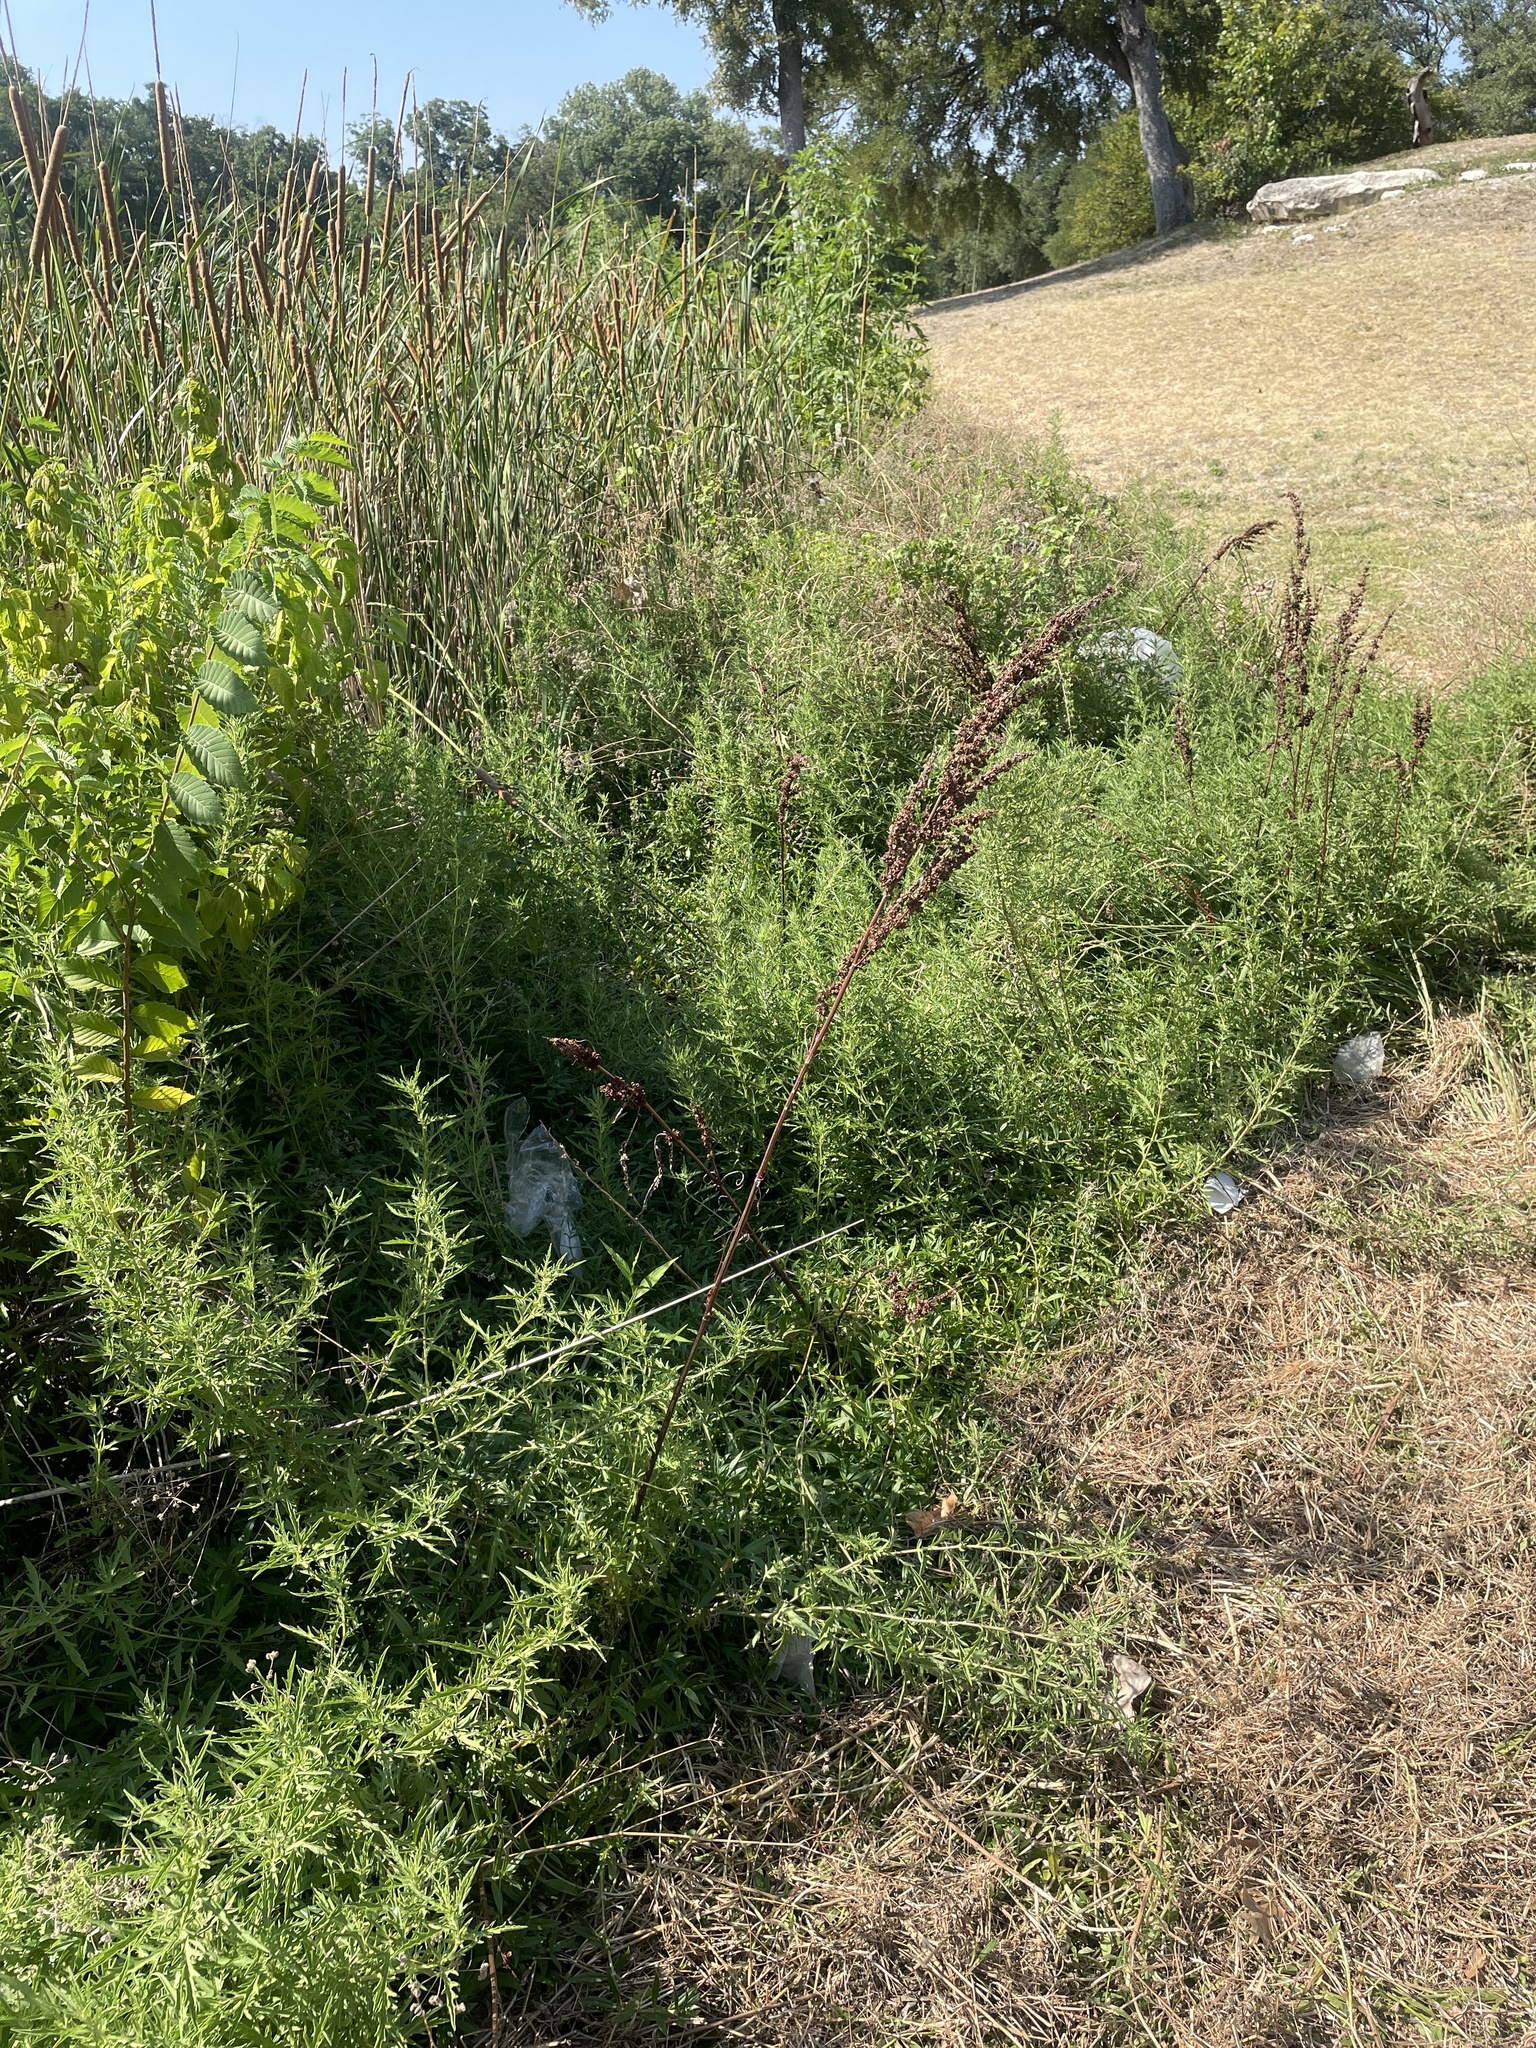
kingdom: Plantae
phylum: Tracheophyta
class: Magnoliopsida
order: Caryophyllales
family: Polygonaceae
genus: Rumex
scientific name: Rumex crispus
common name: Curled dock
